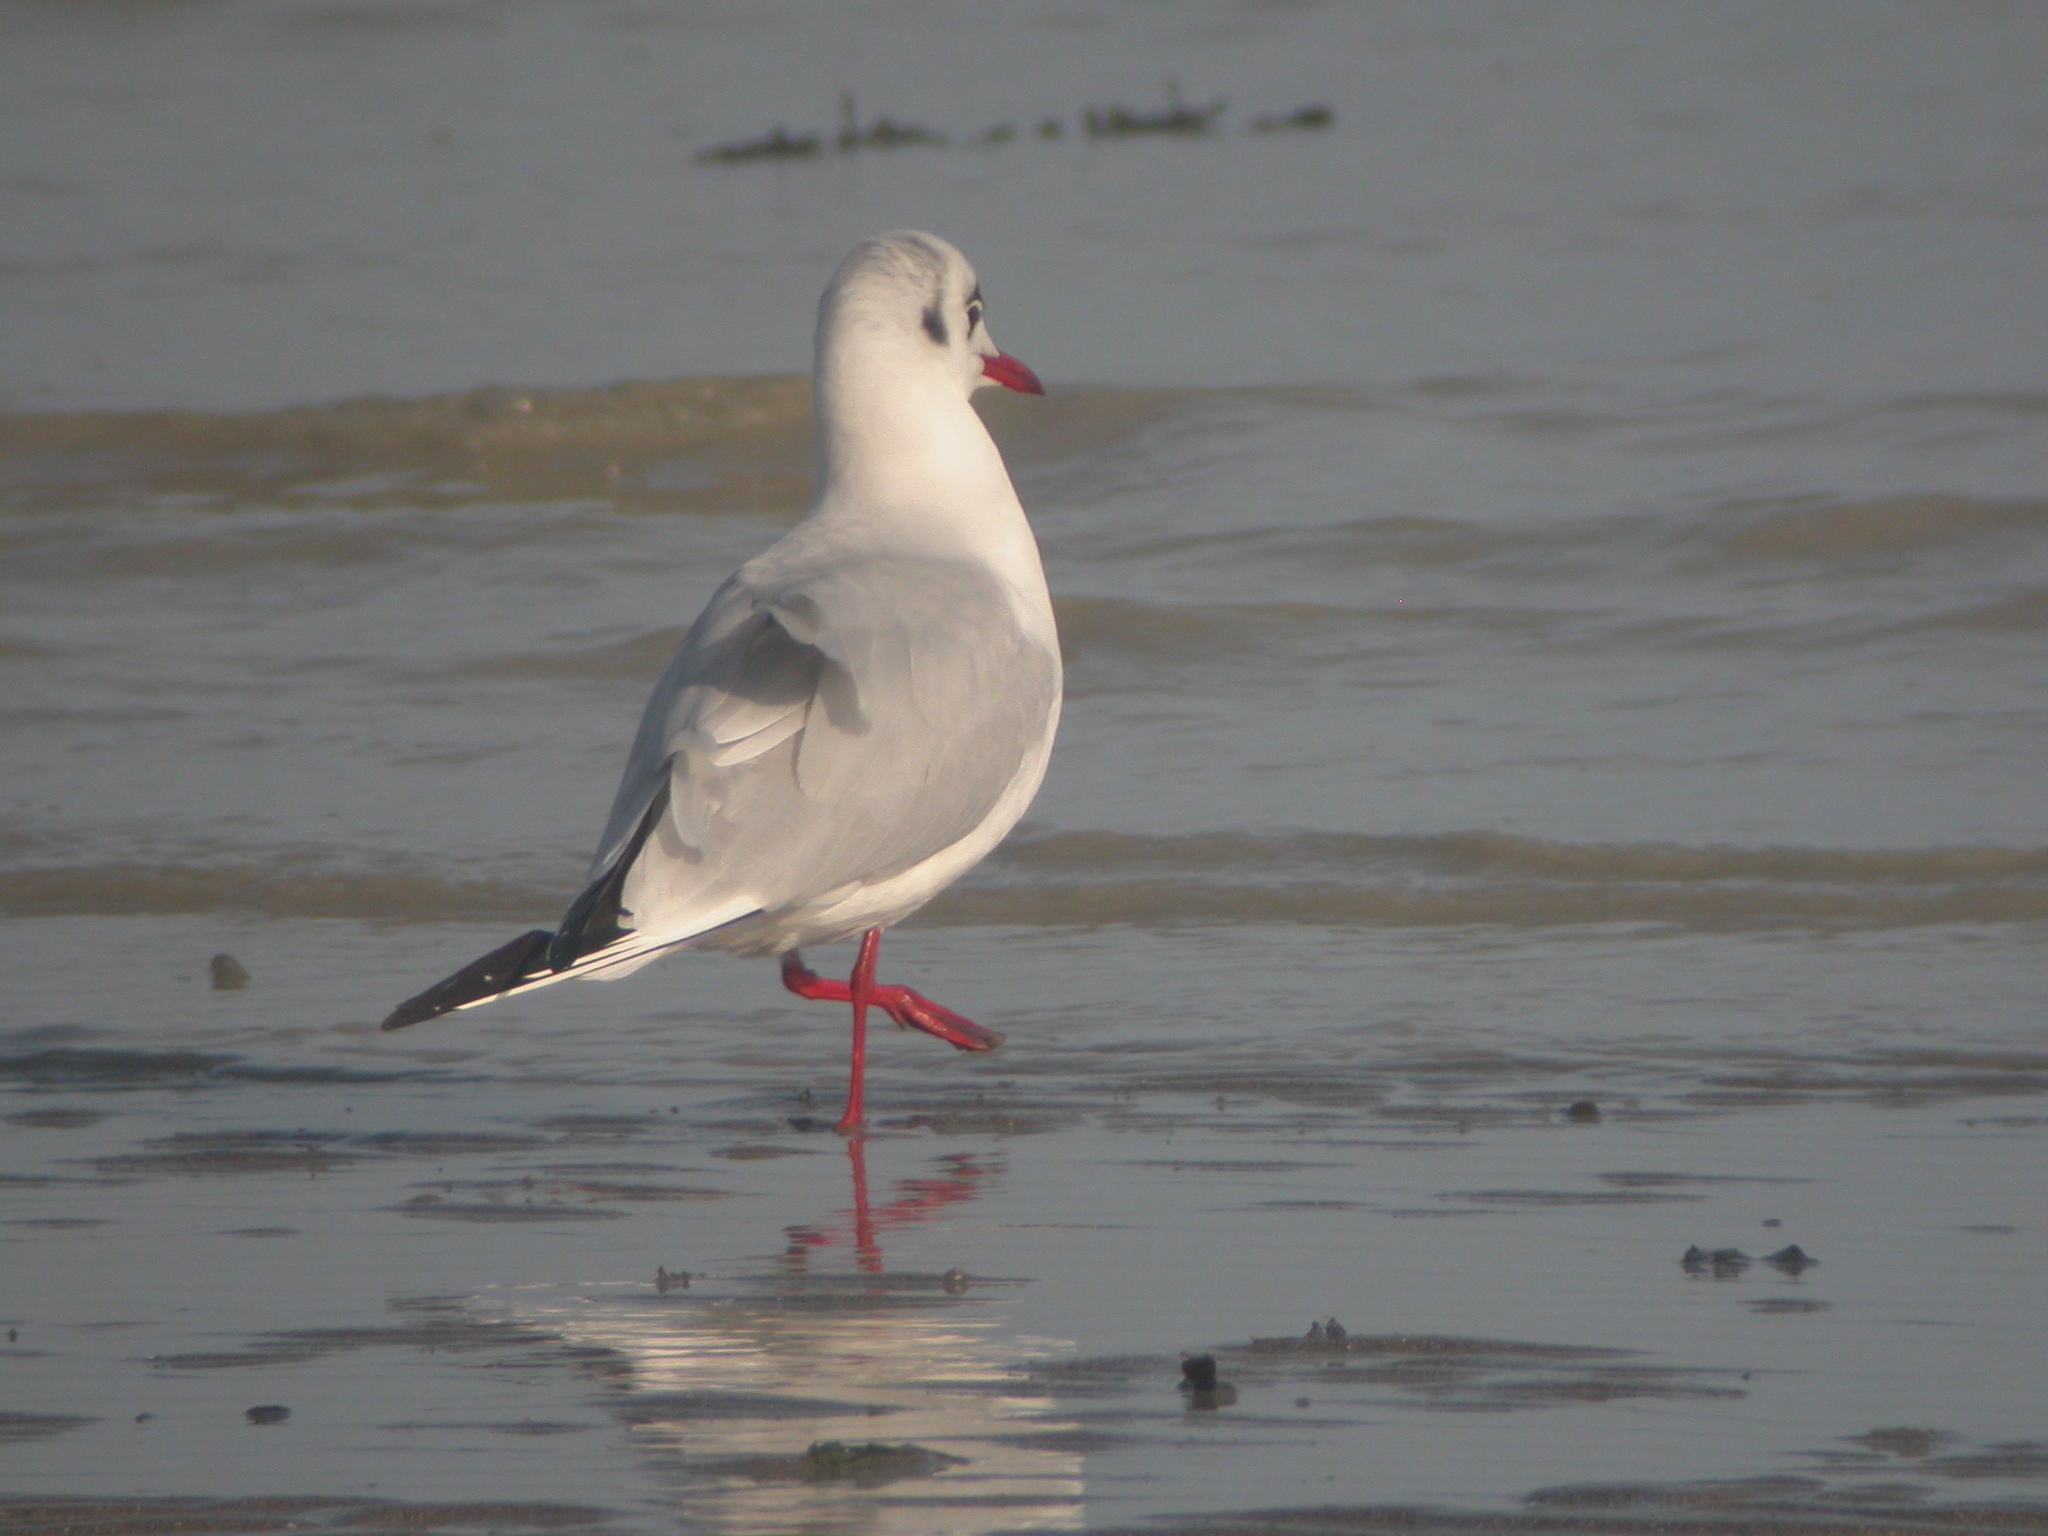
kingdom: Animalia
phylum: Chordata
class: Aves
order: Charadriiformes
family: Laridae
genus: Chroicocephalus
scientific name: Chroicocephalus ridibundus
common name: Black-headed gull
